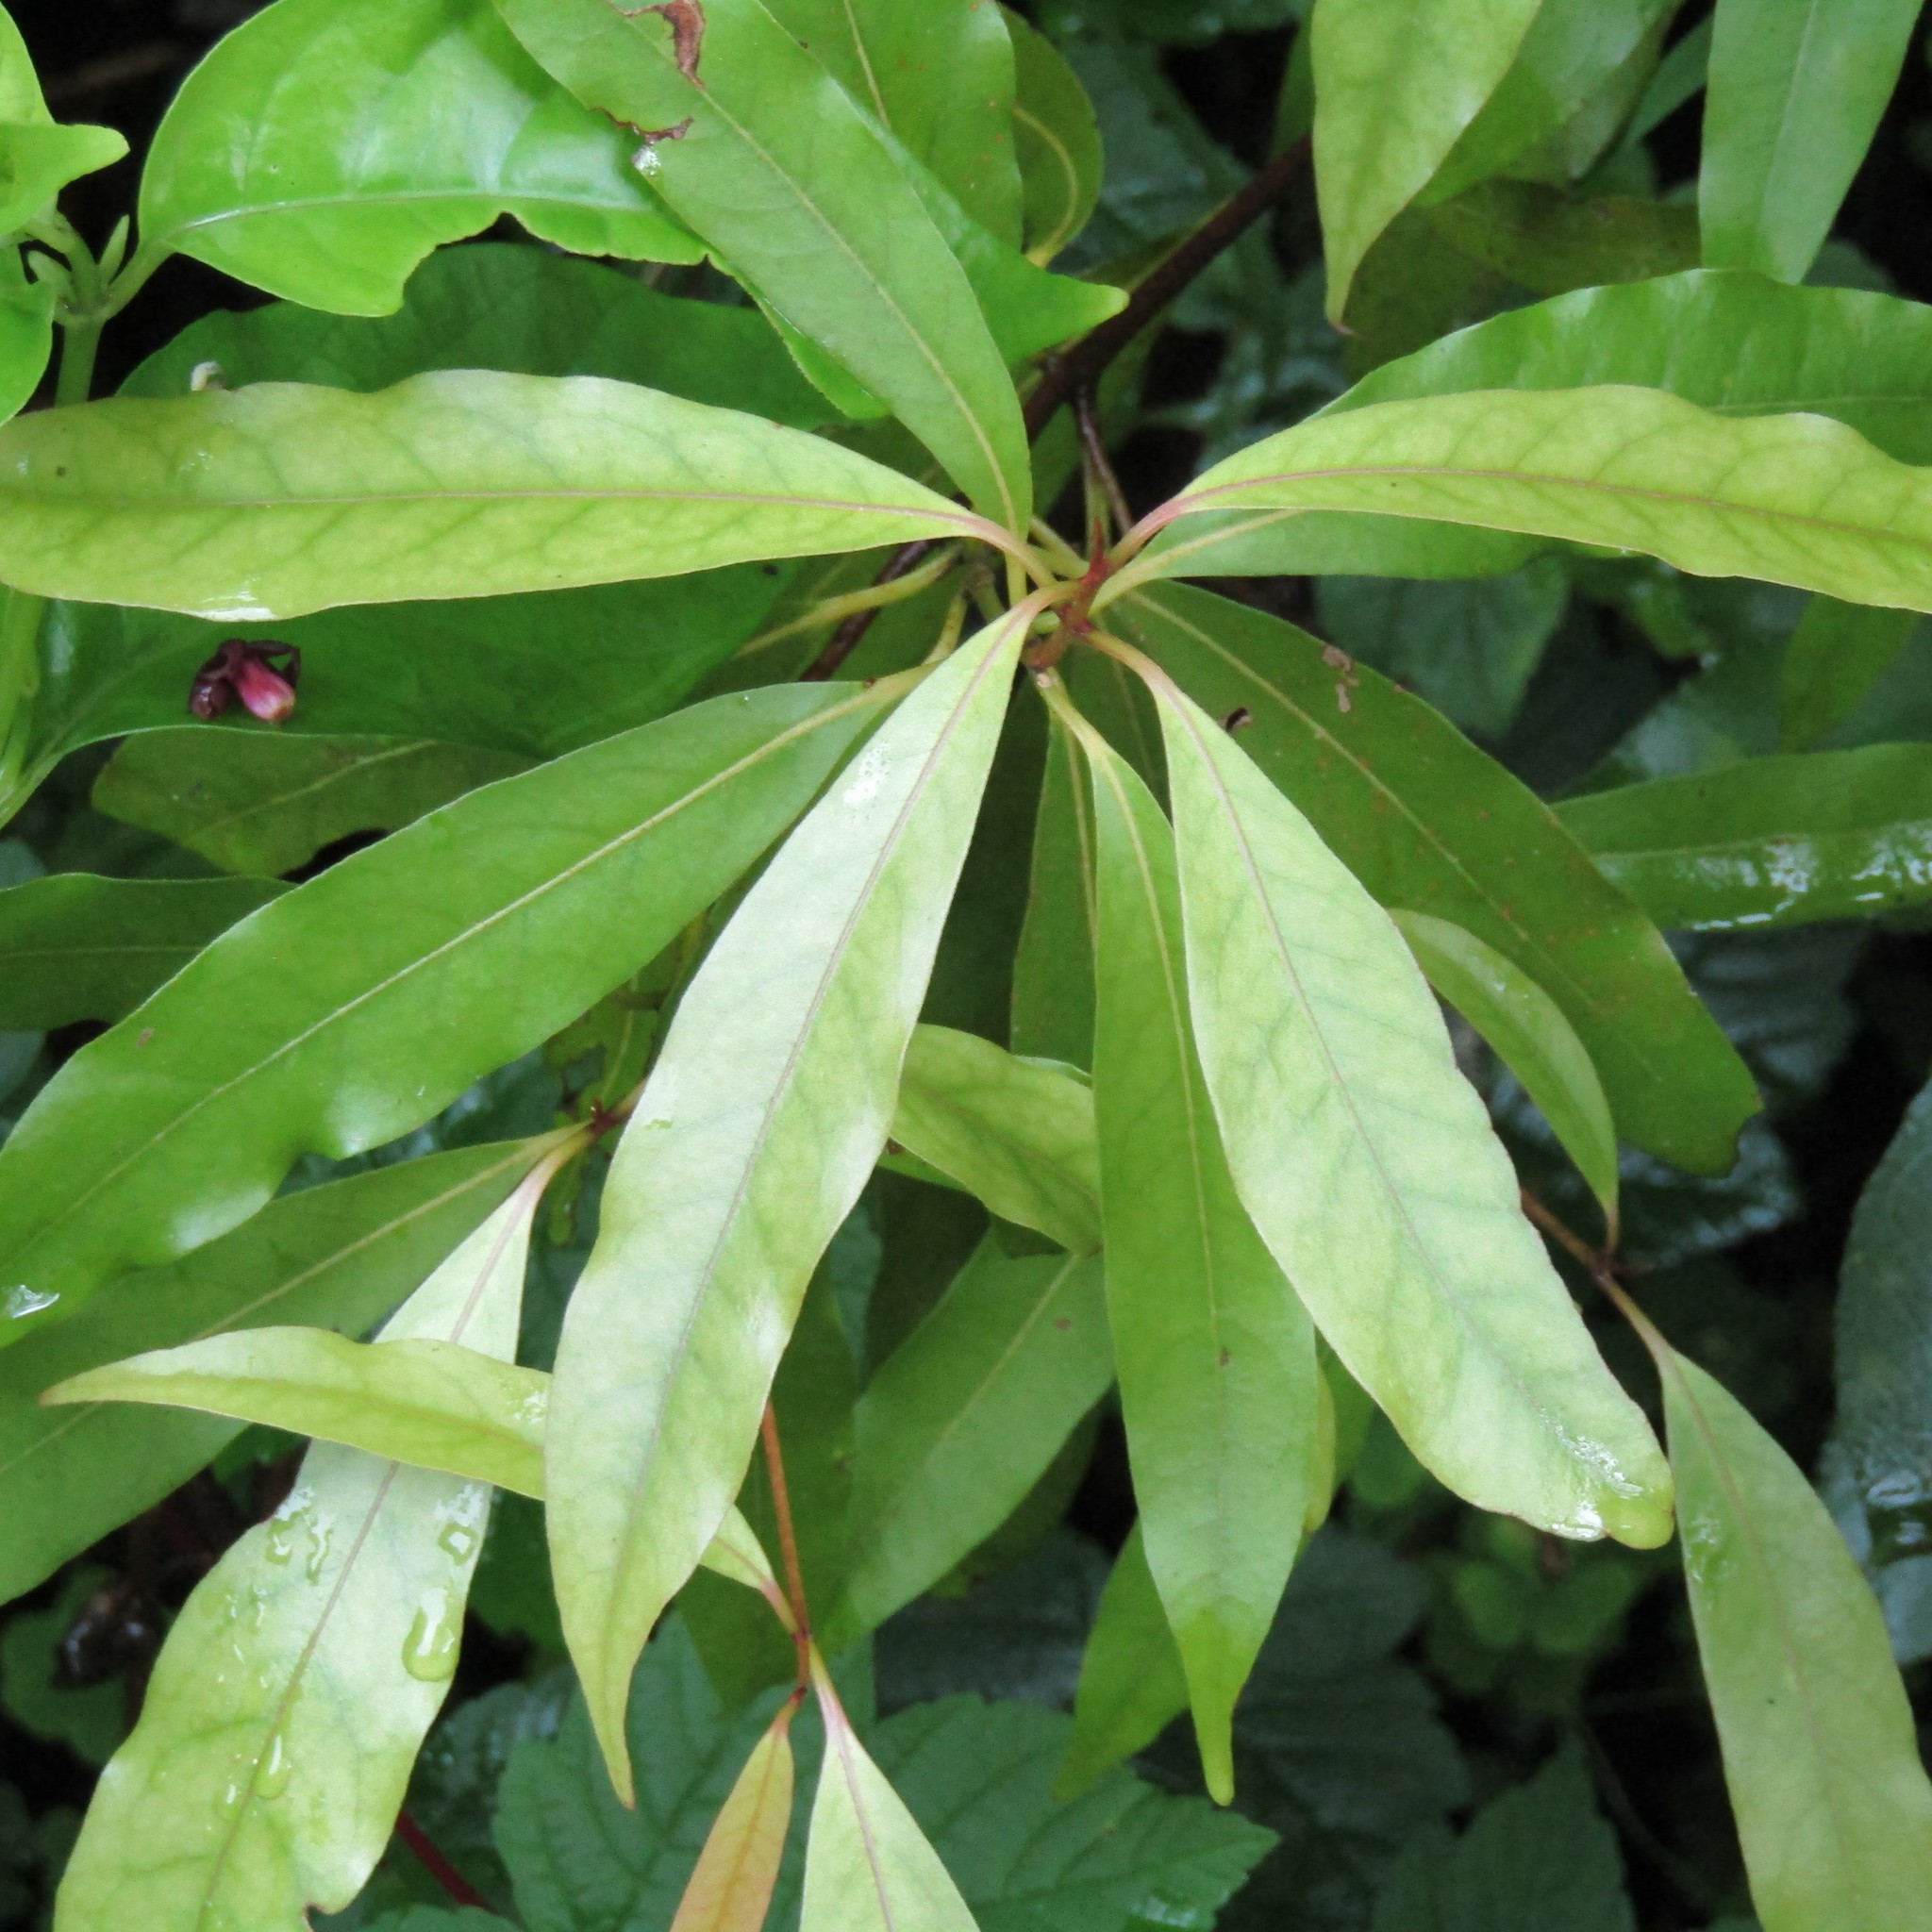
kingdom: Plantae
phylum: Tracheophyta
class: Magnoliopsida
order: Laurales
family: Lauraceae
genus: Beilschmiedia
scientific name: Beilschmiedia tawa
